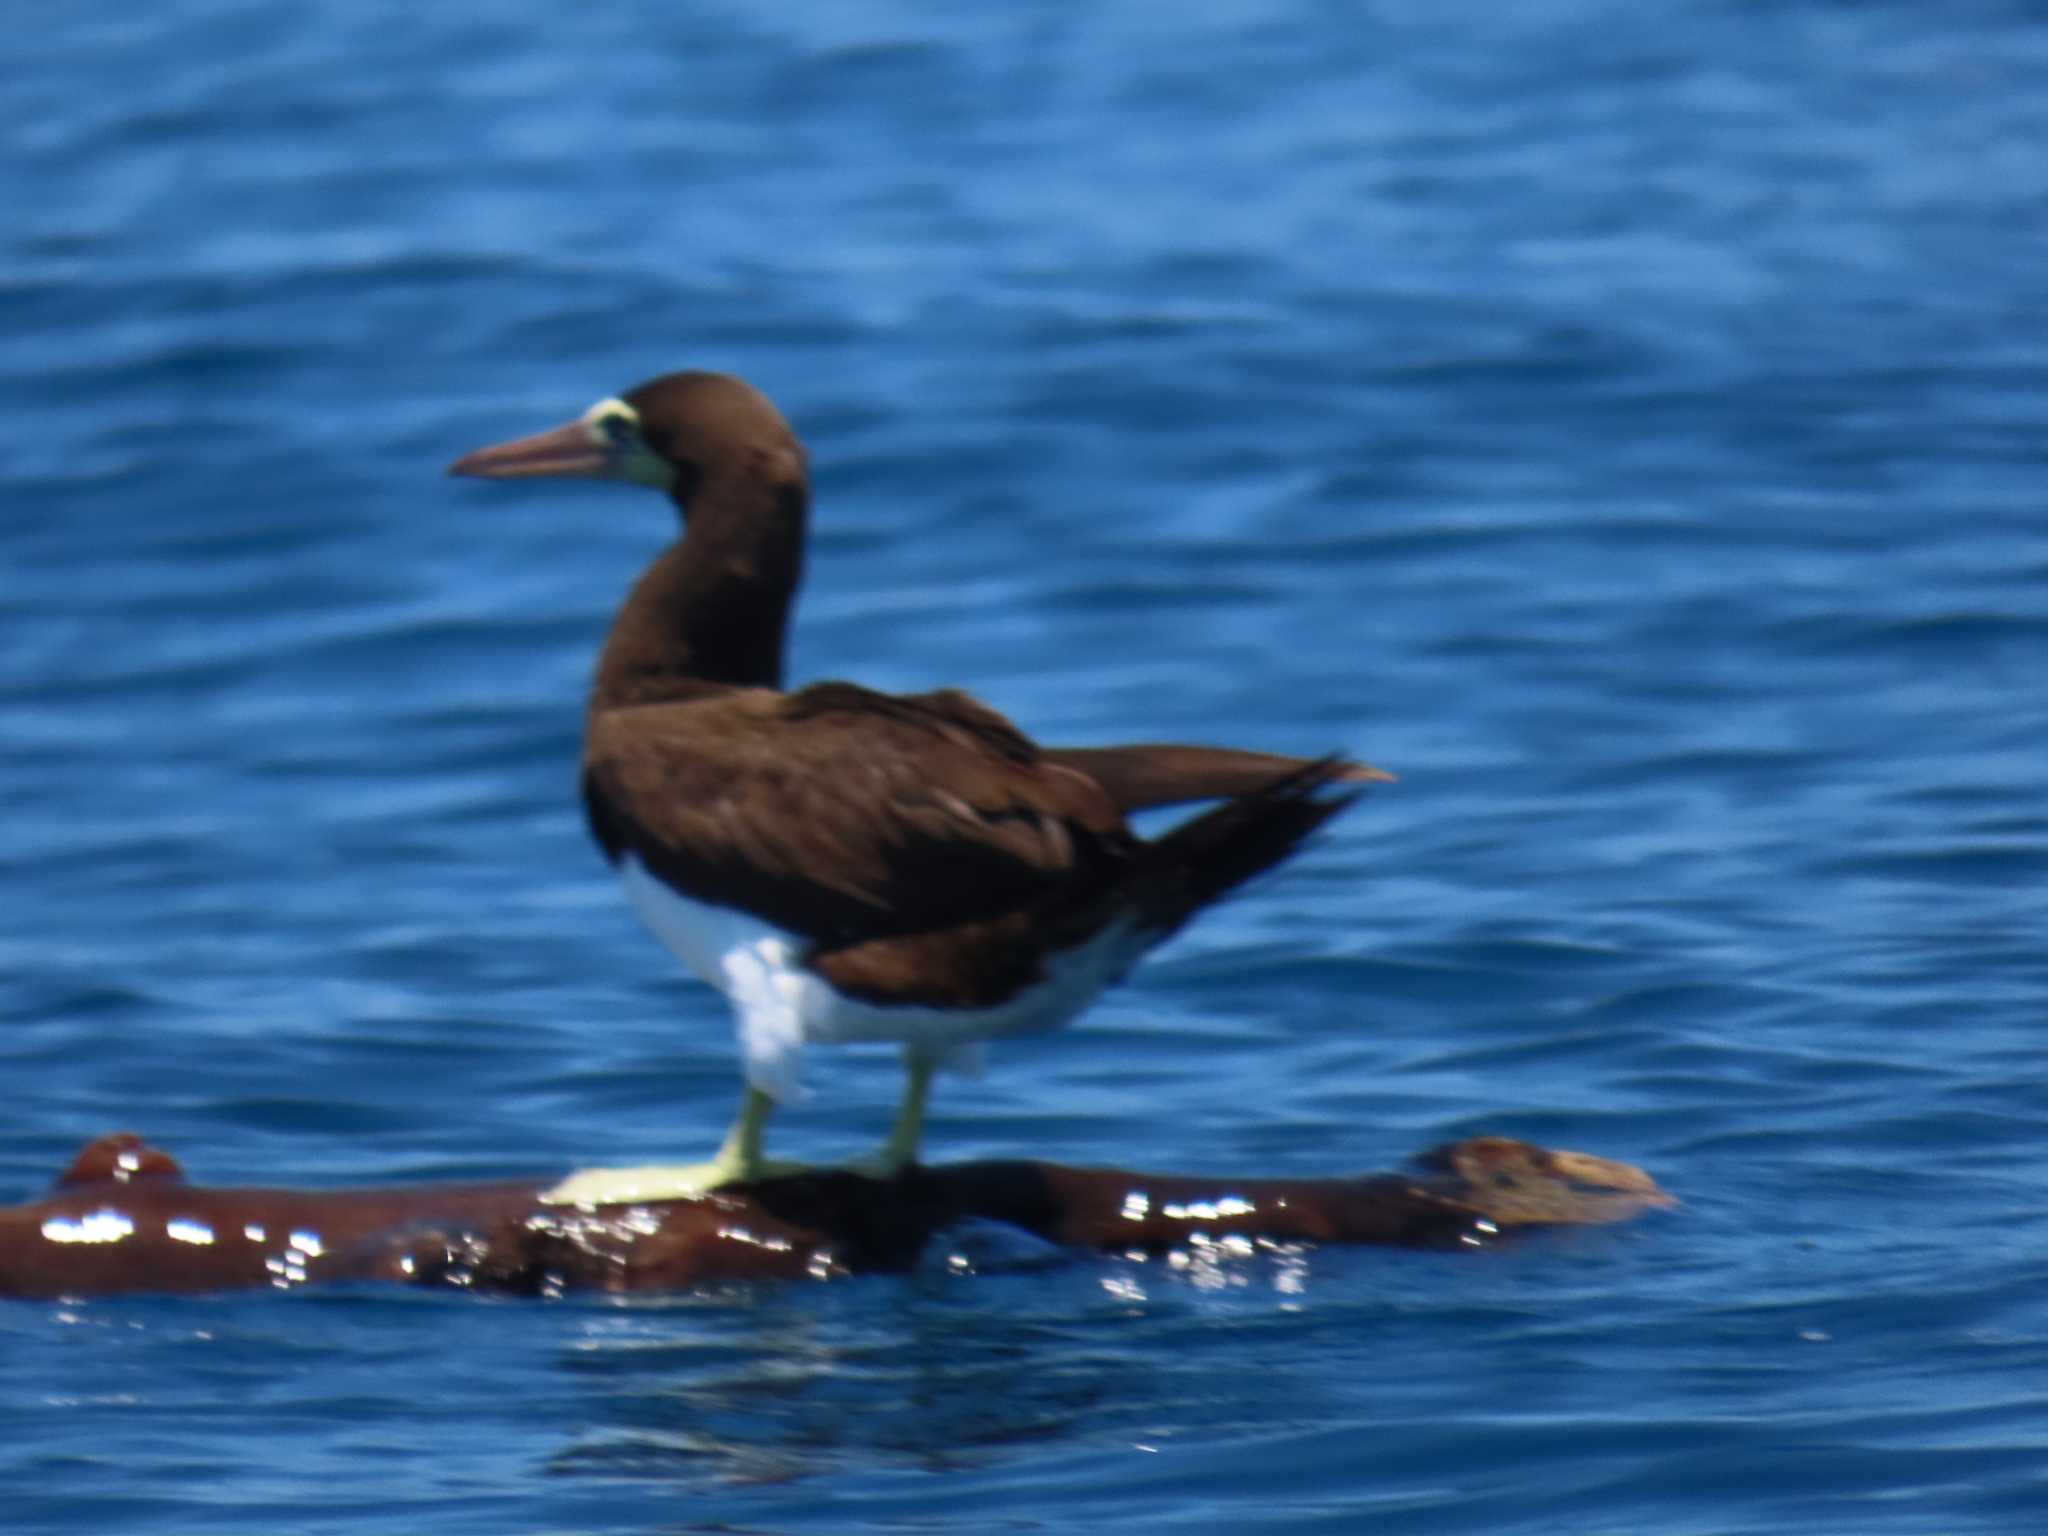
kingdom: Animalia
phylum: Chordata
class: Aves
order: Suliformes
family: Sulidae
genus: Sula
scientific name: Sula leucogaster
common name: Brown booby
